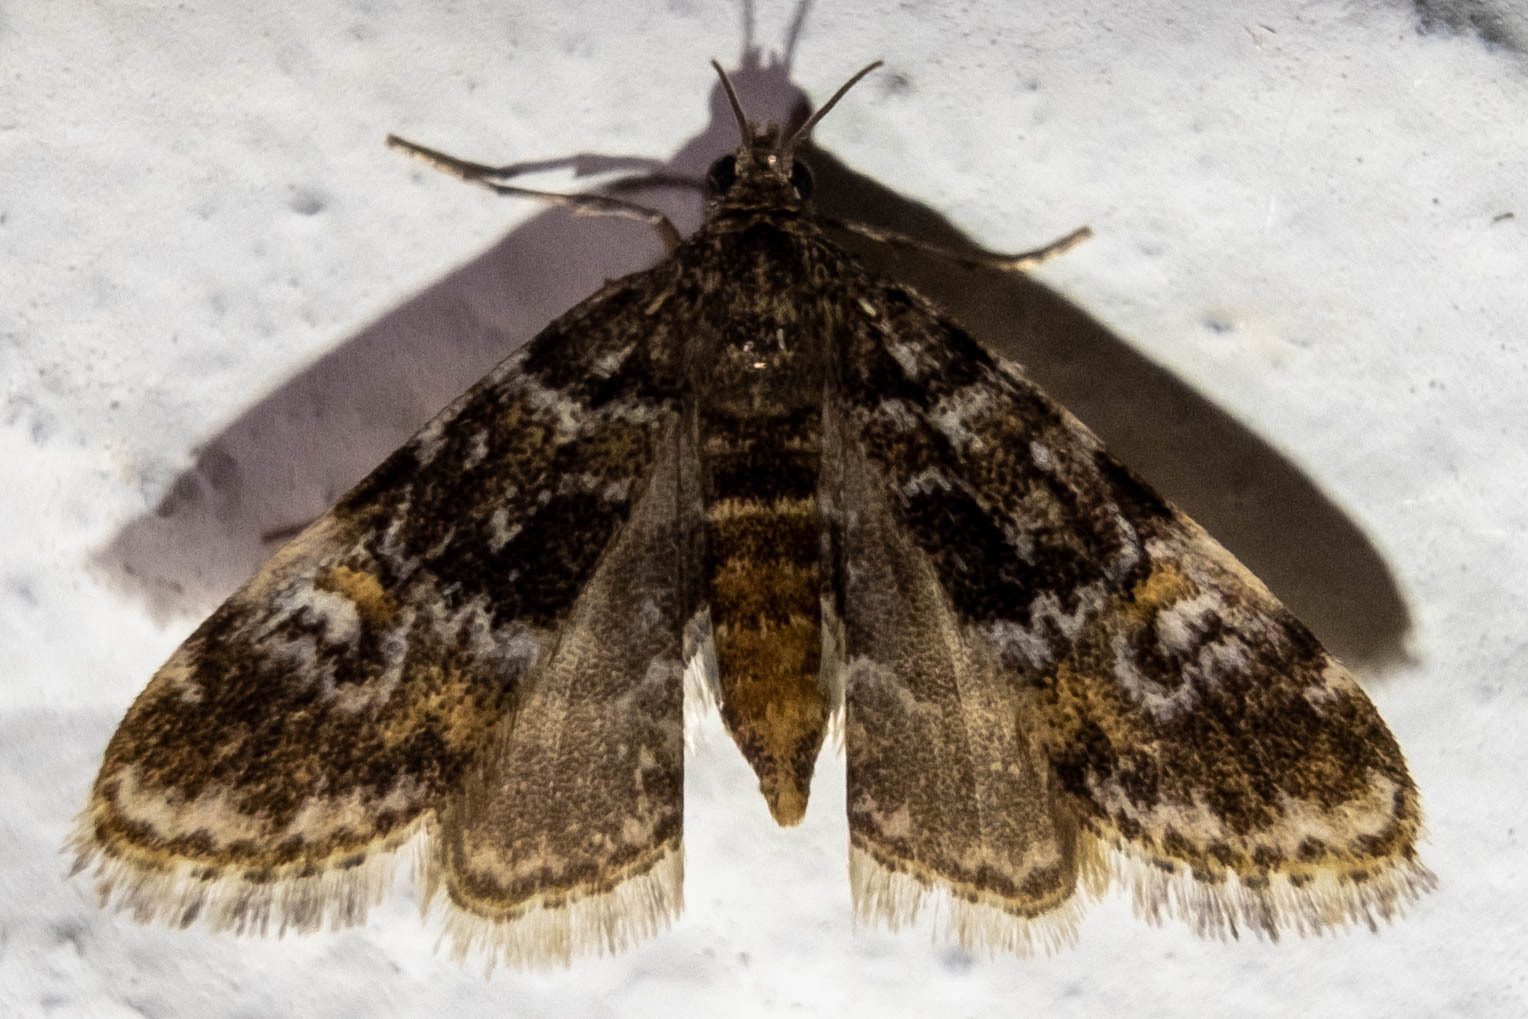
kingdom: Animalia
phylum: Arthropoda
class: Insecta
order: Lepidoptera
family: Crambidae
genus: Elophila
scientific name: Elophila obliteralis
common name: Waterlily leafcutter moth
